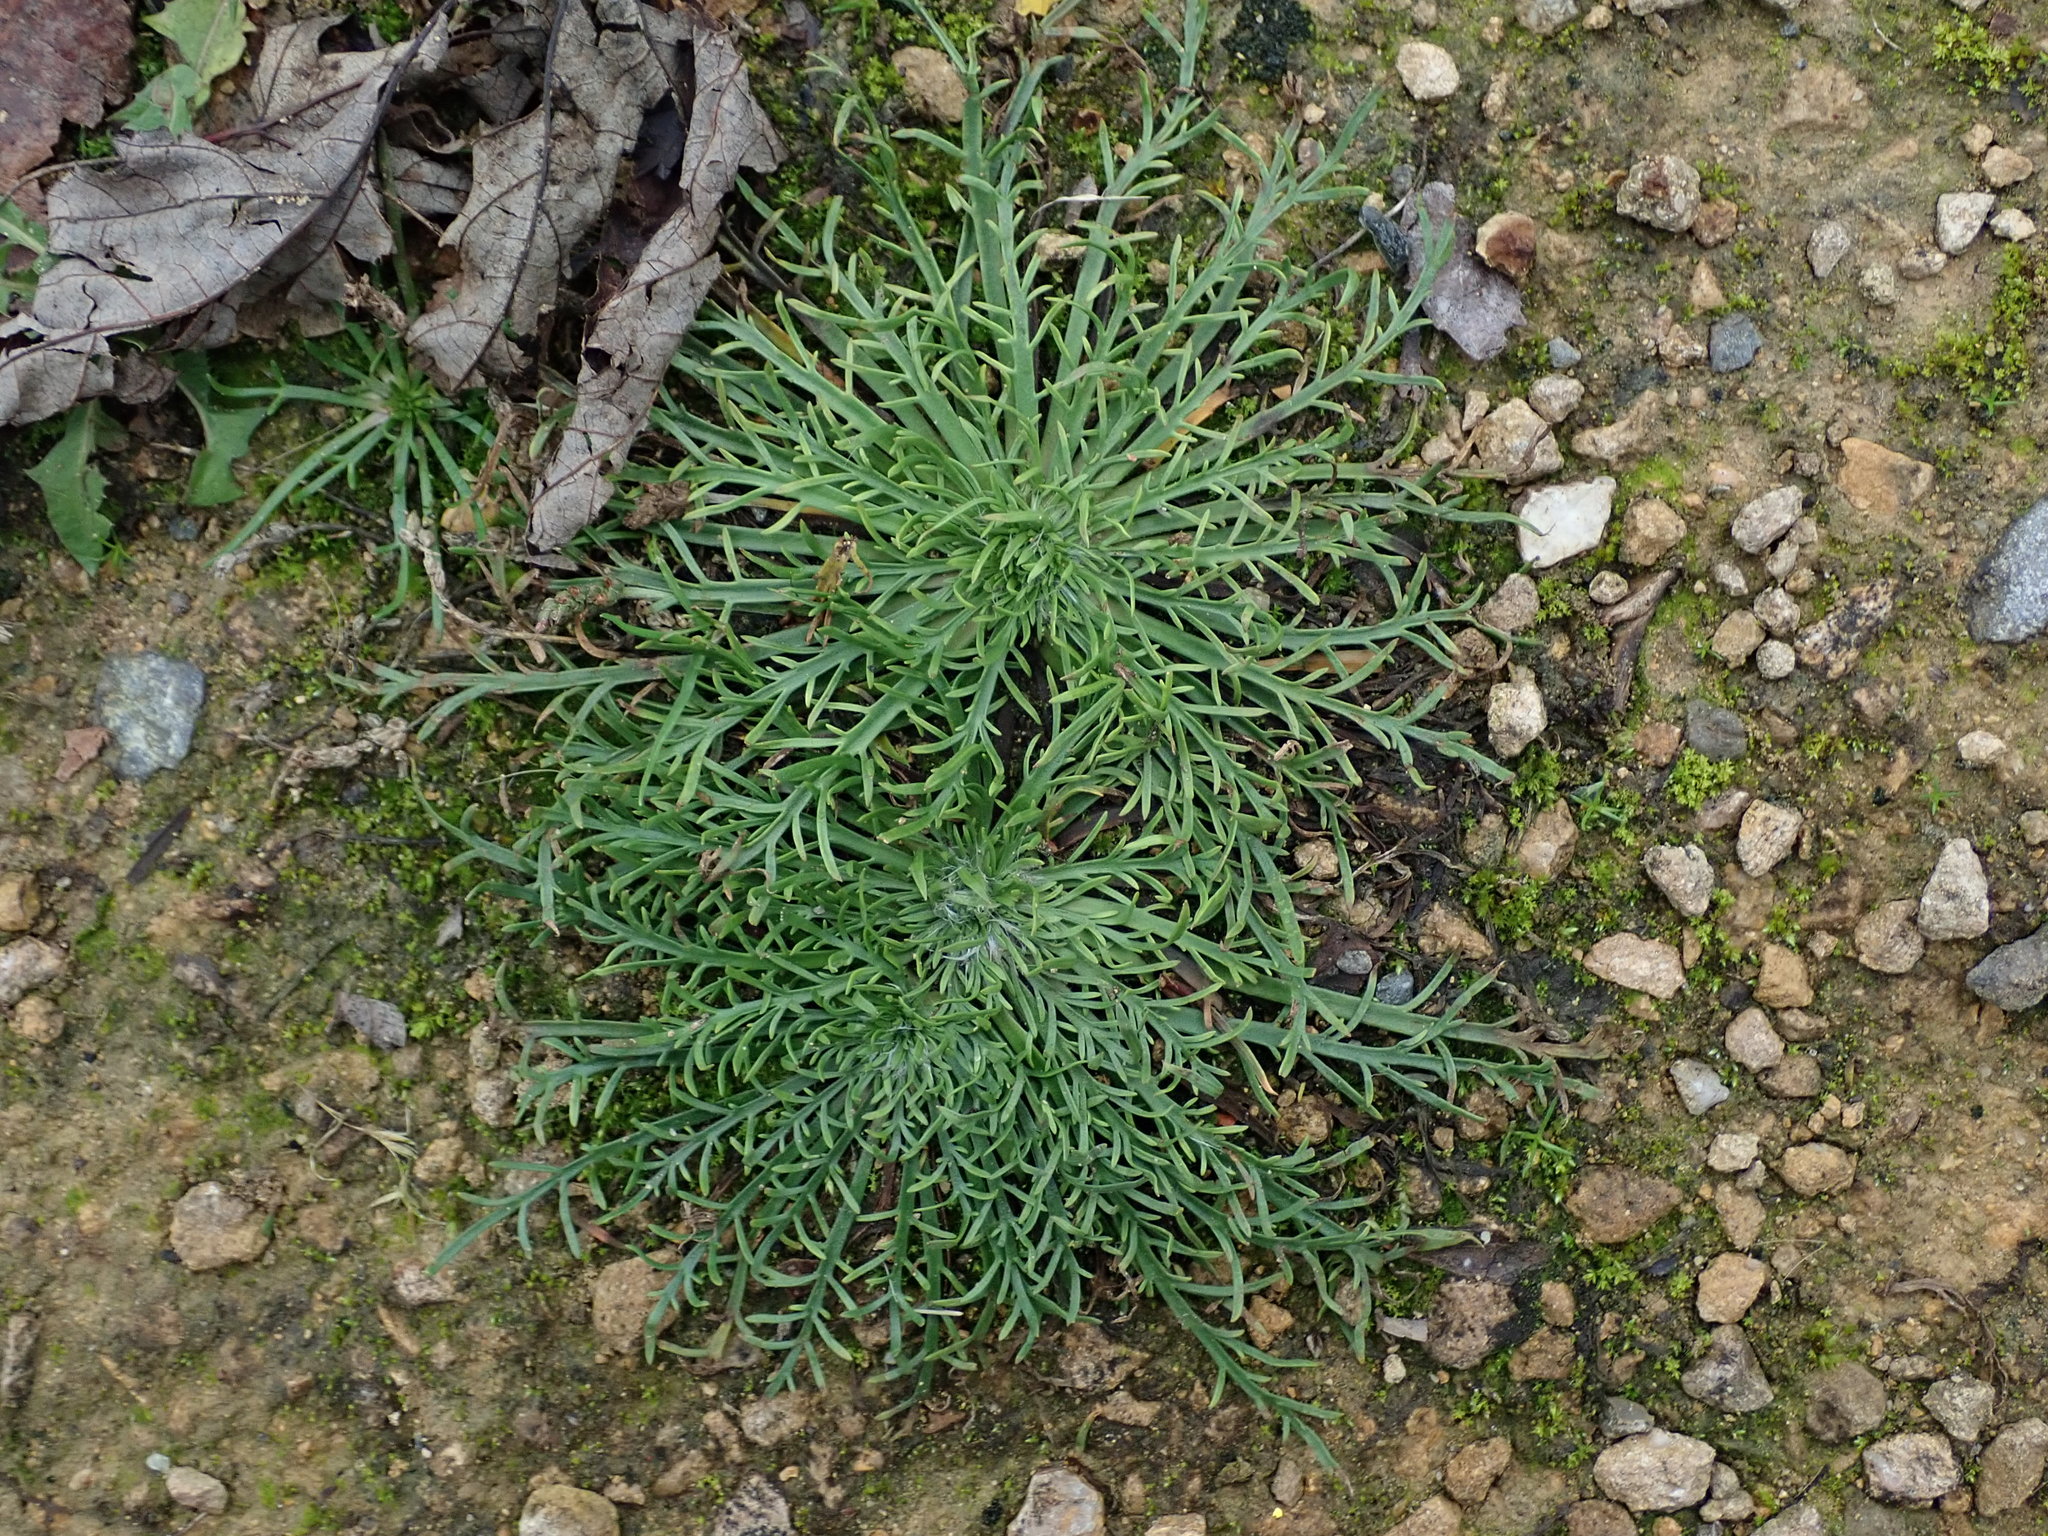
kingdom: Plantae
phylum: Tracheophyta
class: Magnoliopsida
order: Lamiales
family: Plantaginaceae
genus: Plantago
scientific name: Plantago coronopus
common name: Buck's-horn plantain
